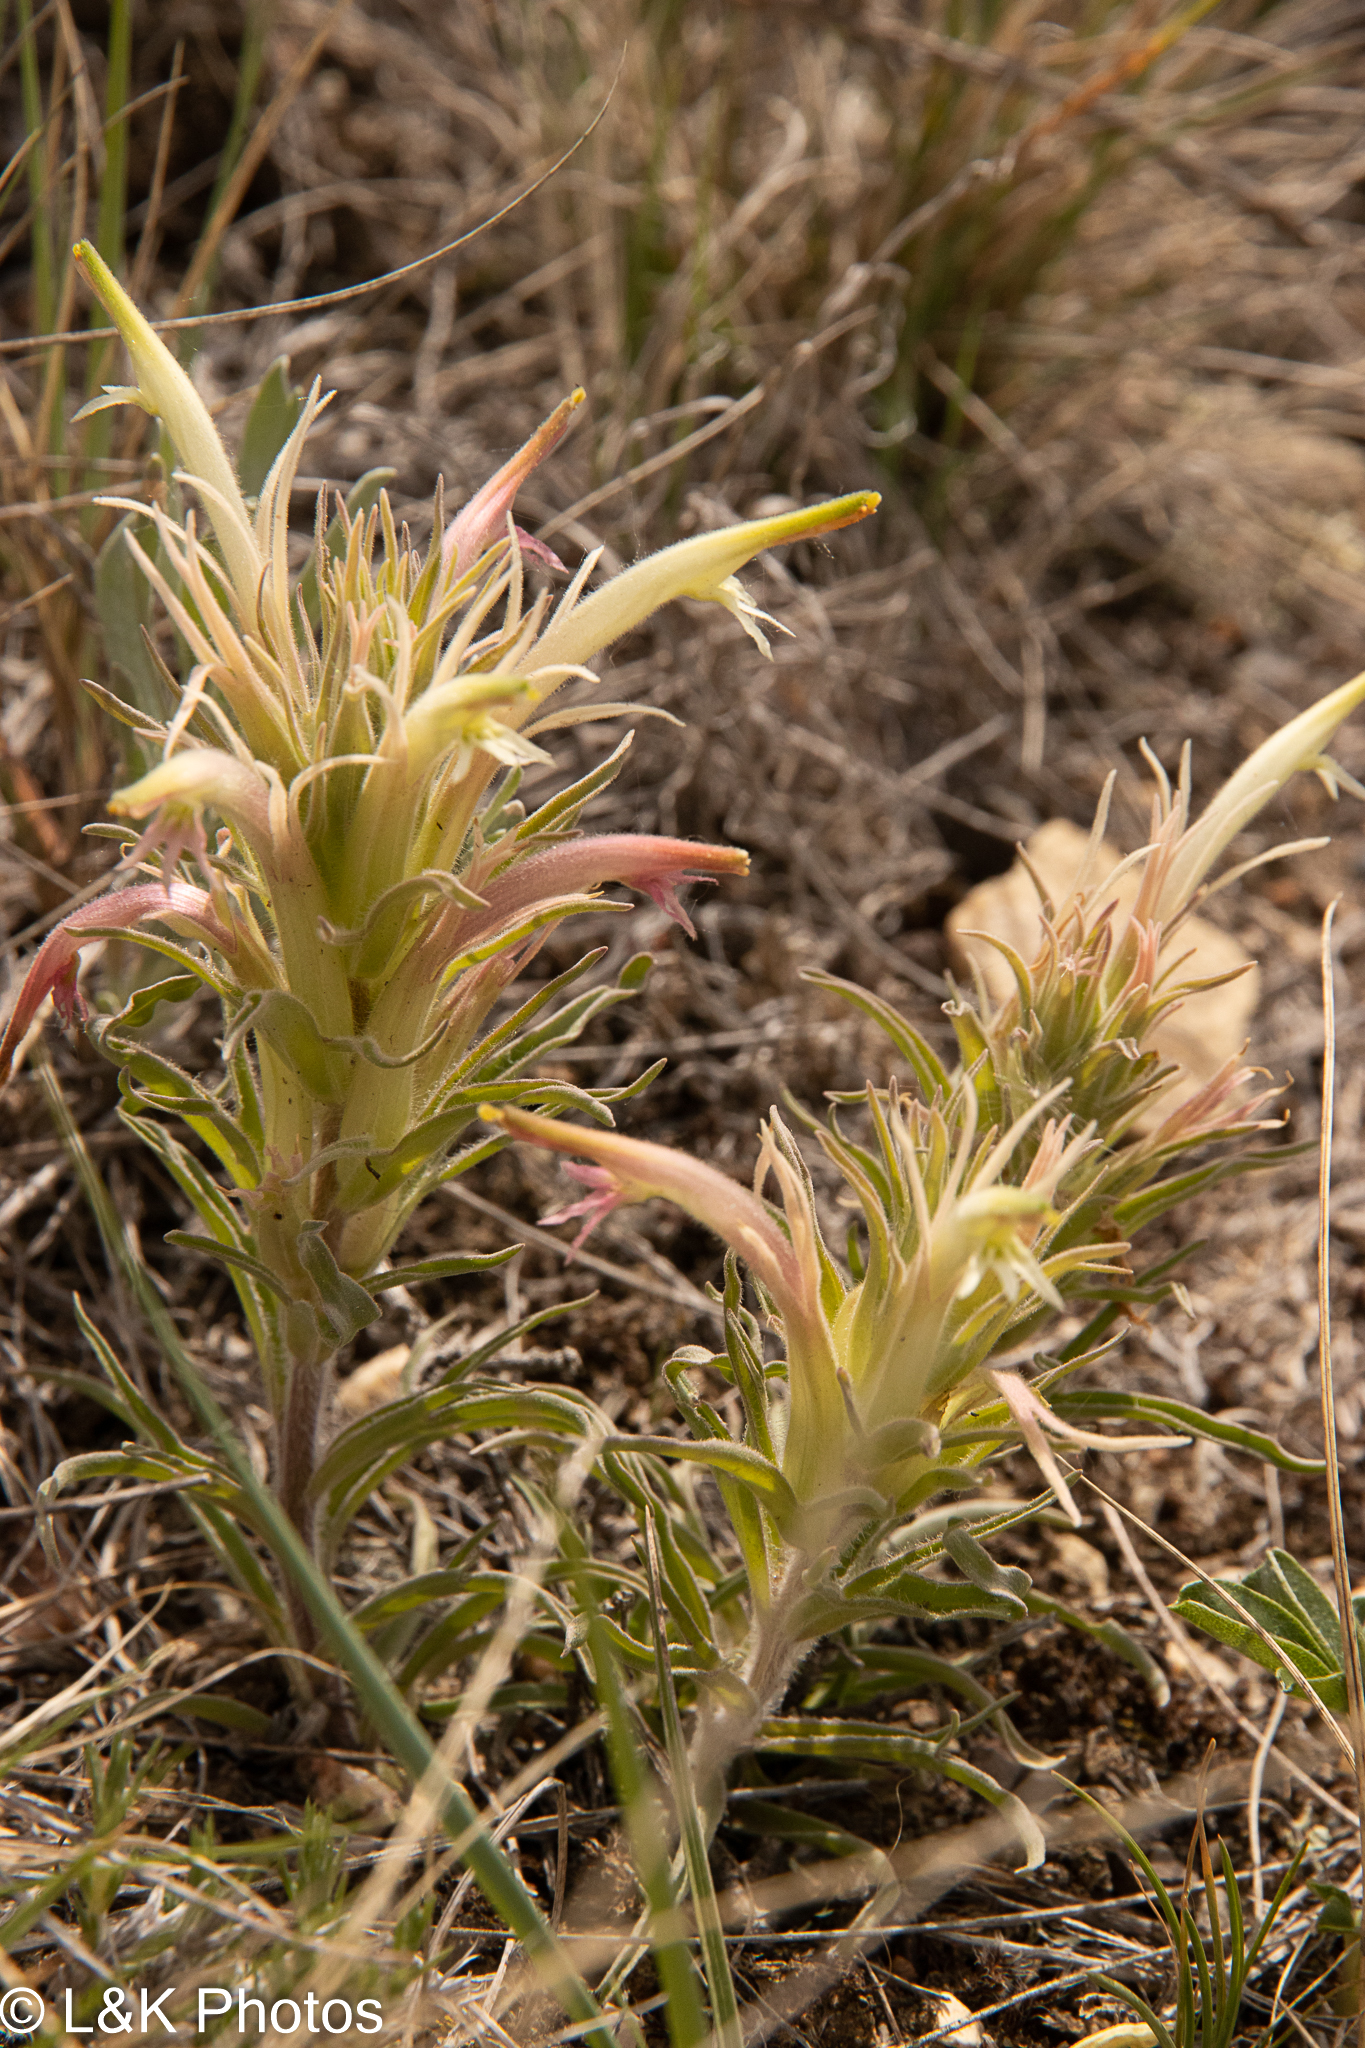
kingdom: Plantae
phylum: Tracheophyta
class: Magnoliopsida
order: Lamiales
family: Orobanchaceae
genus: Castilleja
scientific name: Castilleja sessiliflora
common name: Downy paintbrush
